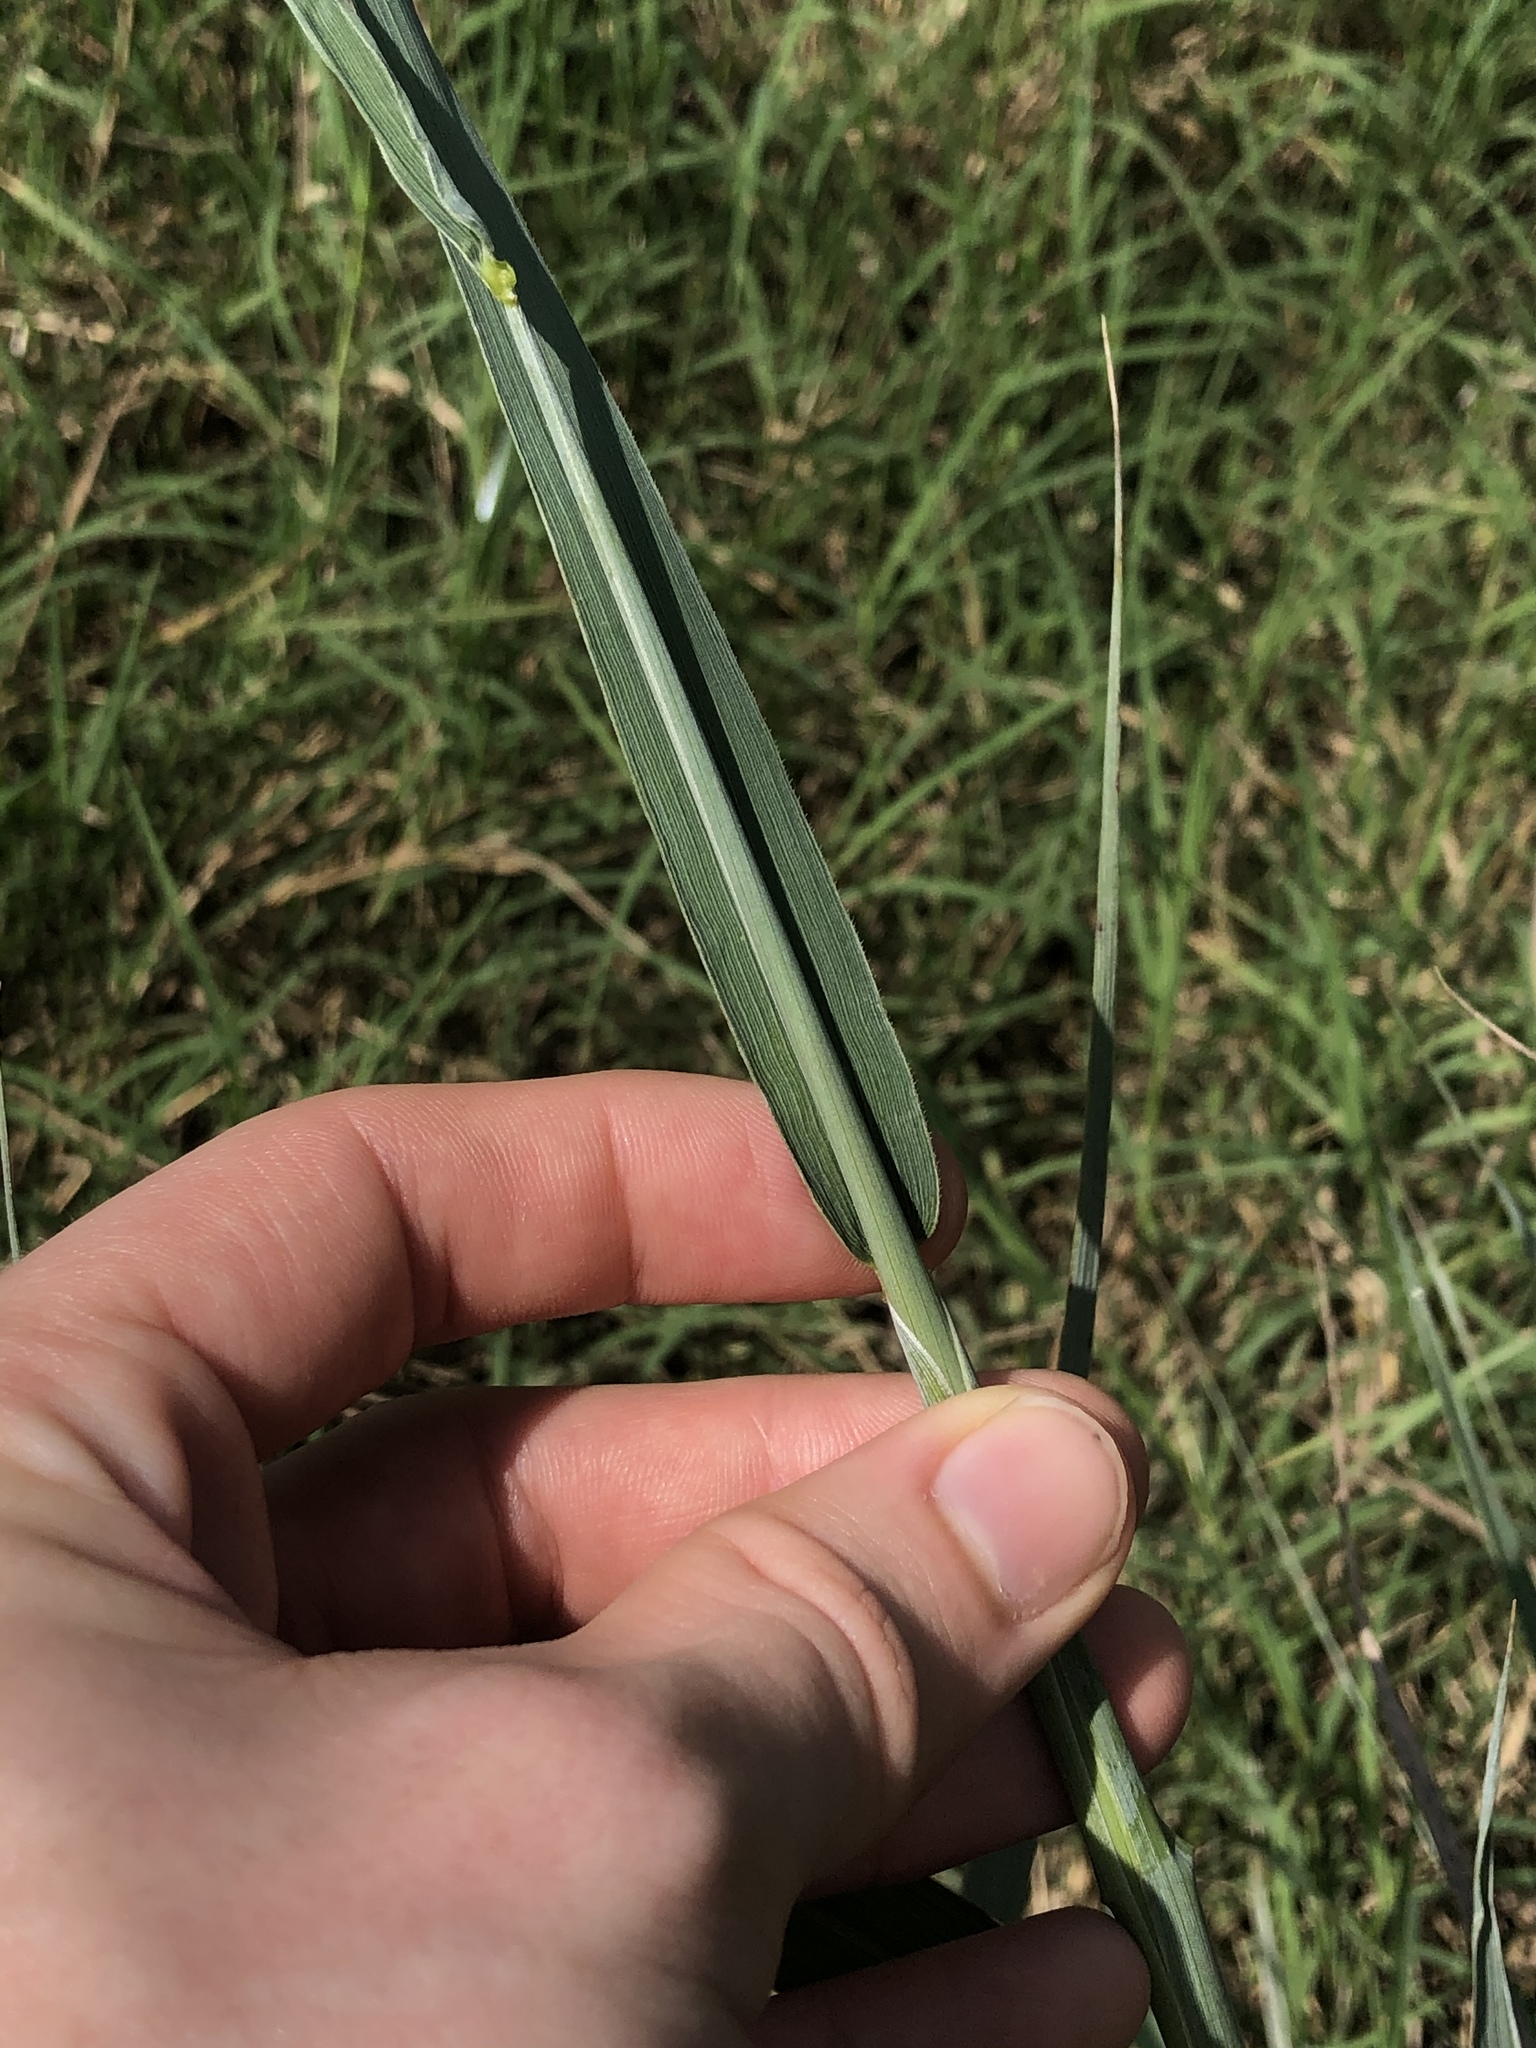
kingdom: Plantae
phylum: Tracheophyta
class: Liliopsida
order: Poales
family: Poaceae
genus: Sorghastrum
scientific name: Sorghastrum nutans
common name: Indian grass
